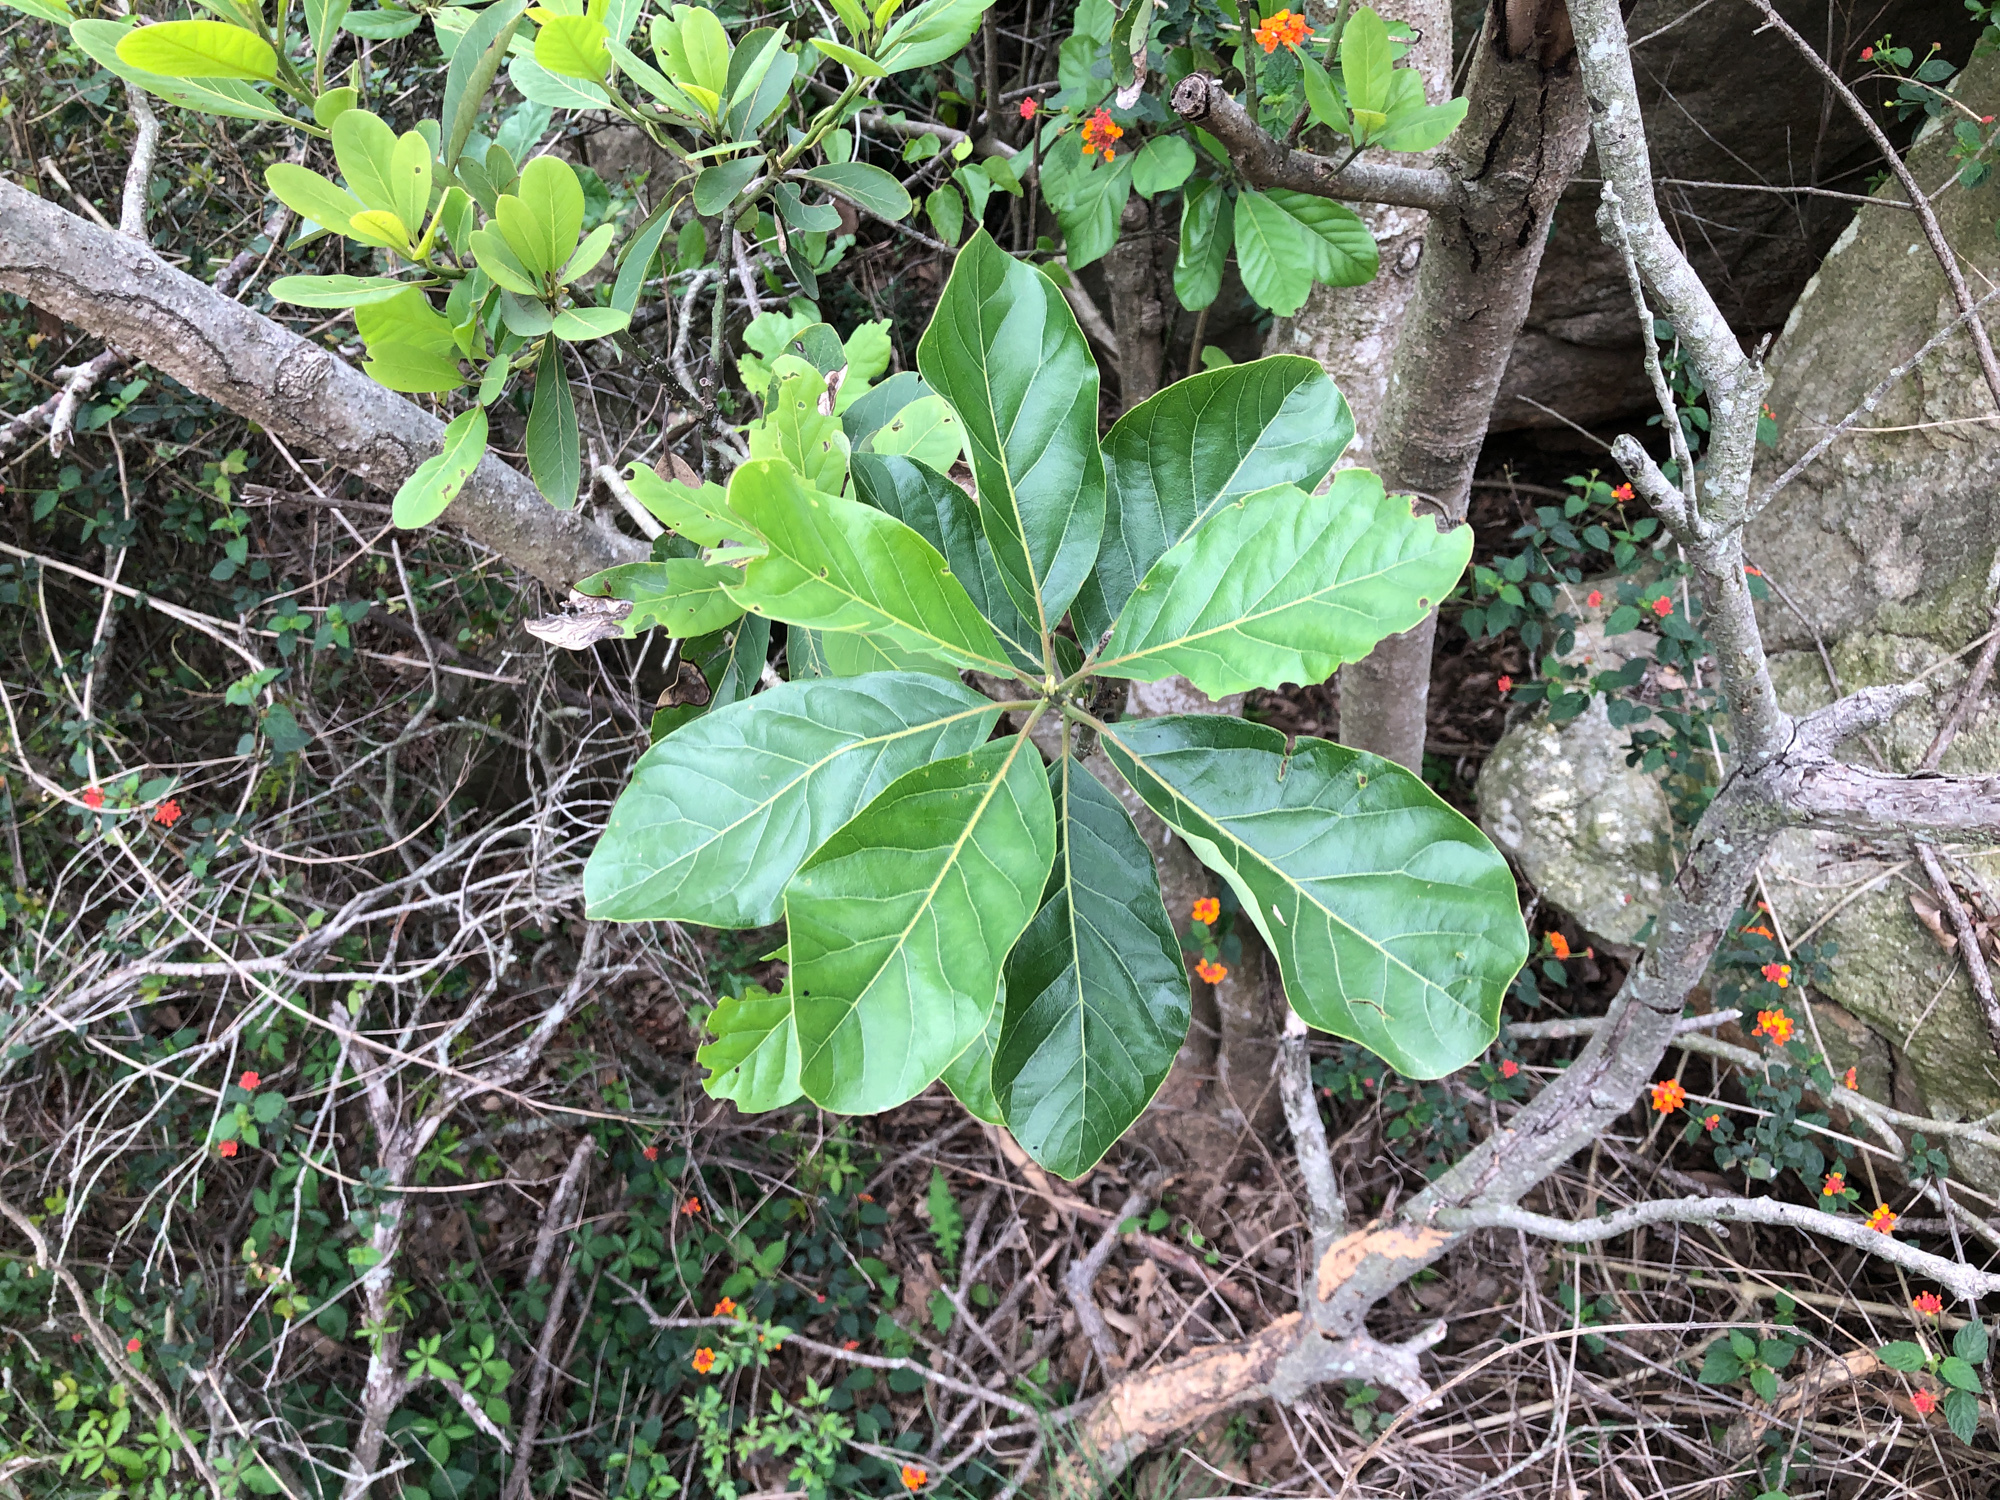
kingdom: Plantae
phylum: Tracheophyta
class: Magnoliopsida
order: Laurales
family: Lauraceae
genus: Litsea
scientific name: Litsea glutinosa
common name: Indian-laurel
